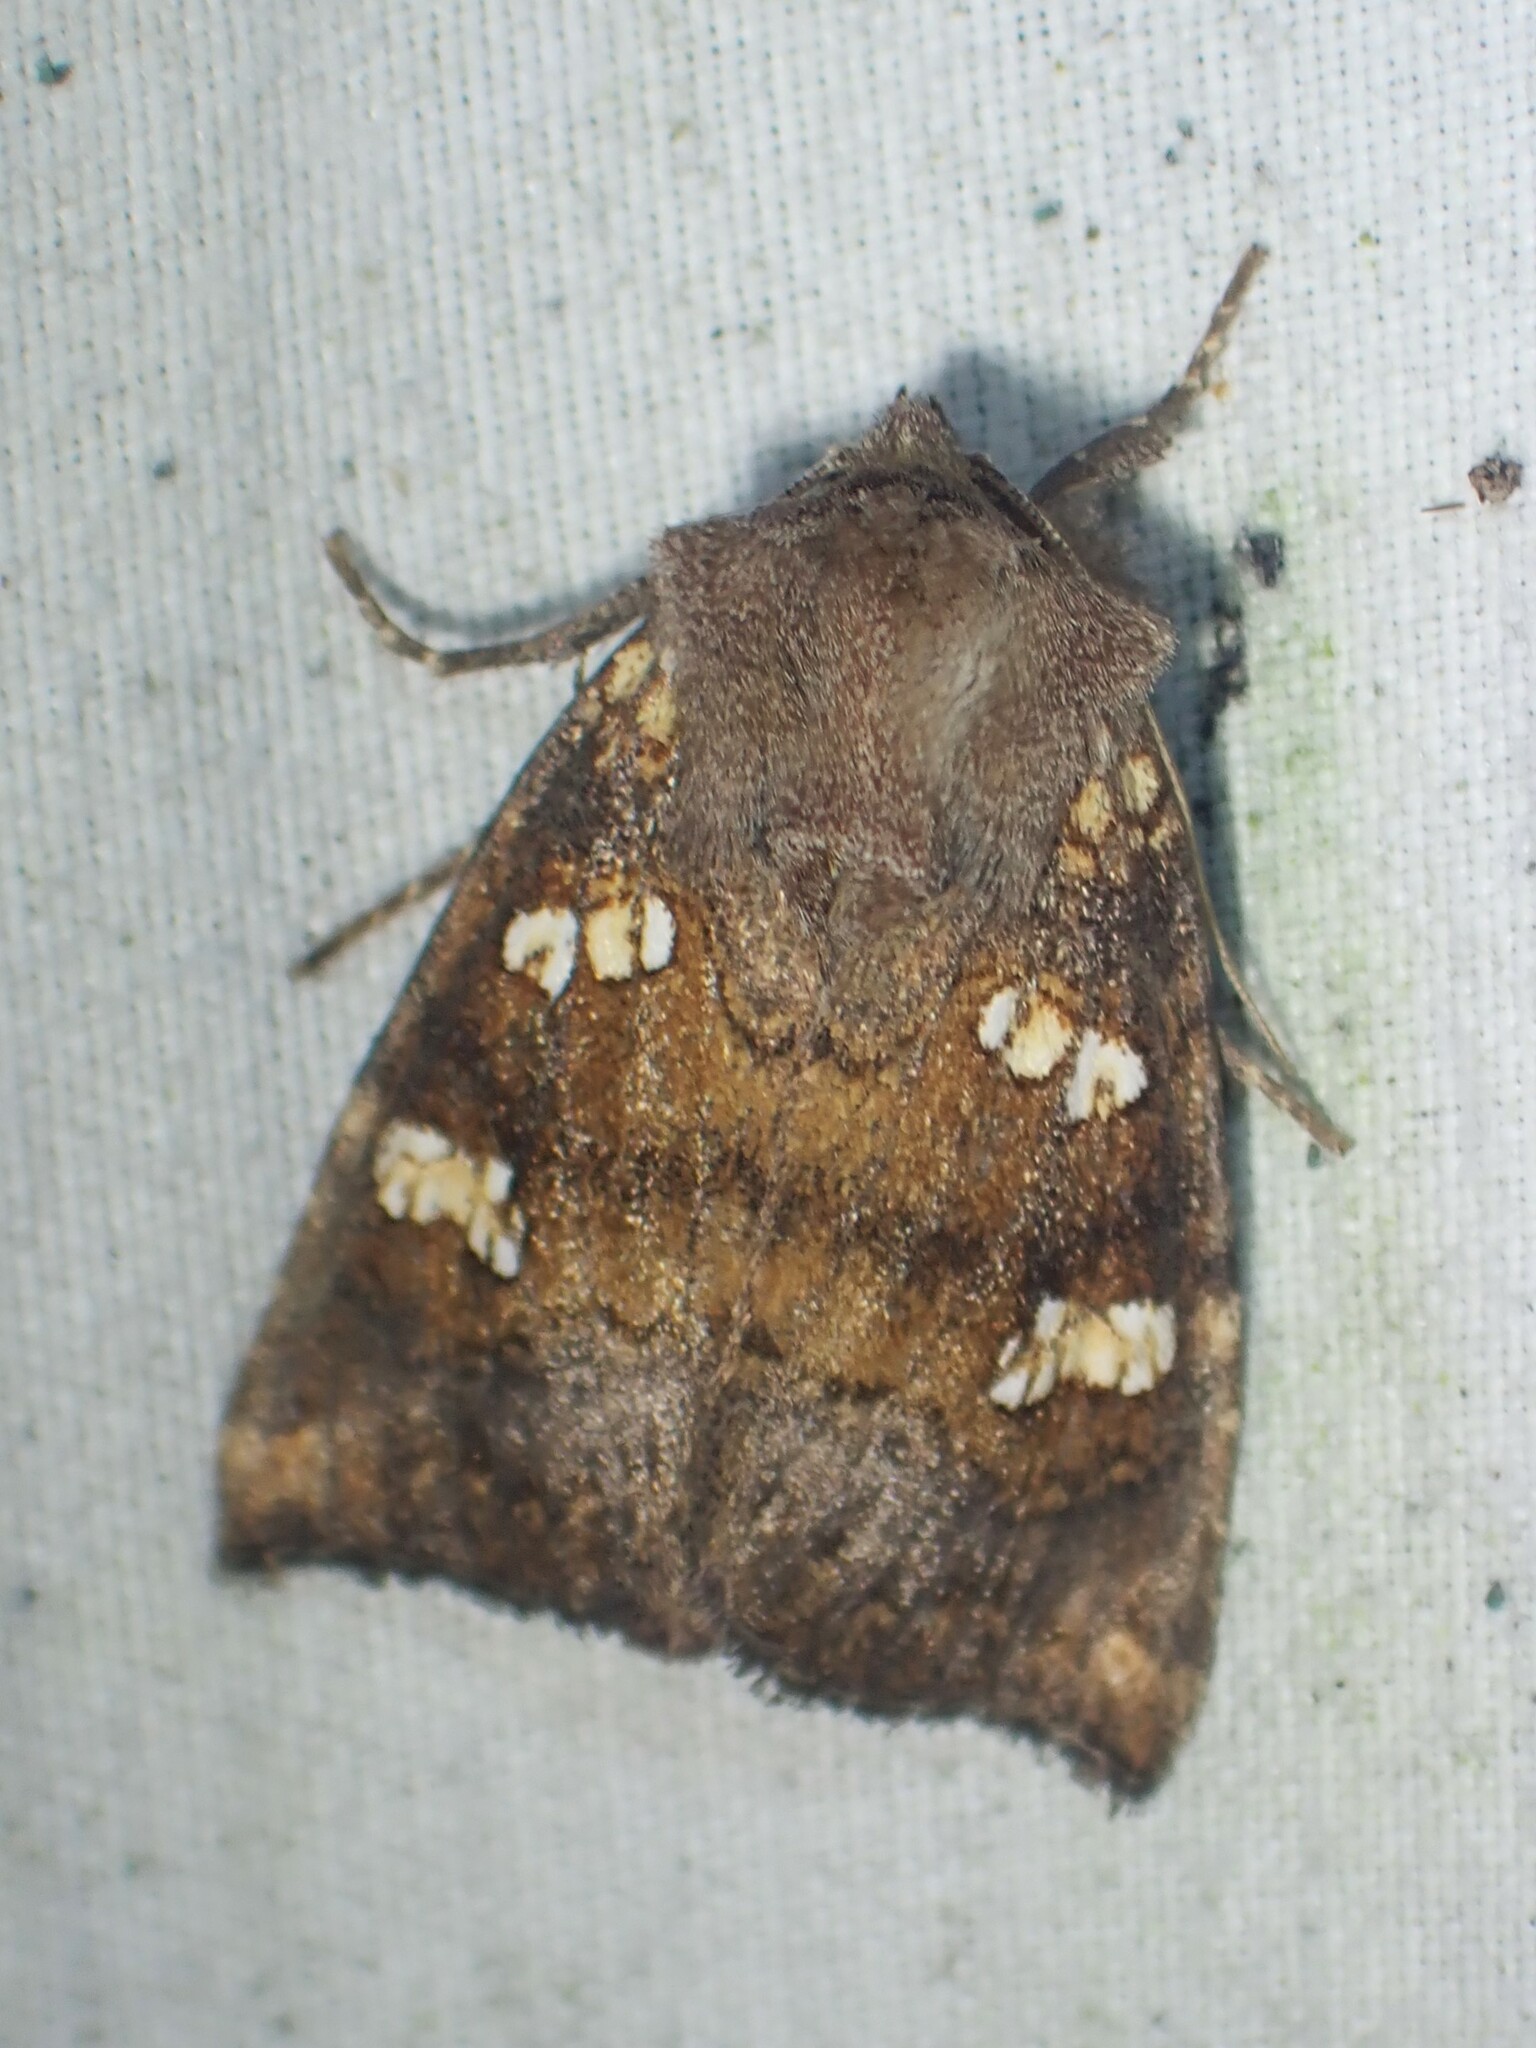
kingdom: Animalia
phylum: Arthropoda
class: Insecta
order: Lepidoptera
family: Noctuidae
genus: Papaipema
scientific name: Papaipema unimoda
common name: Meadow rue borer moth
